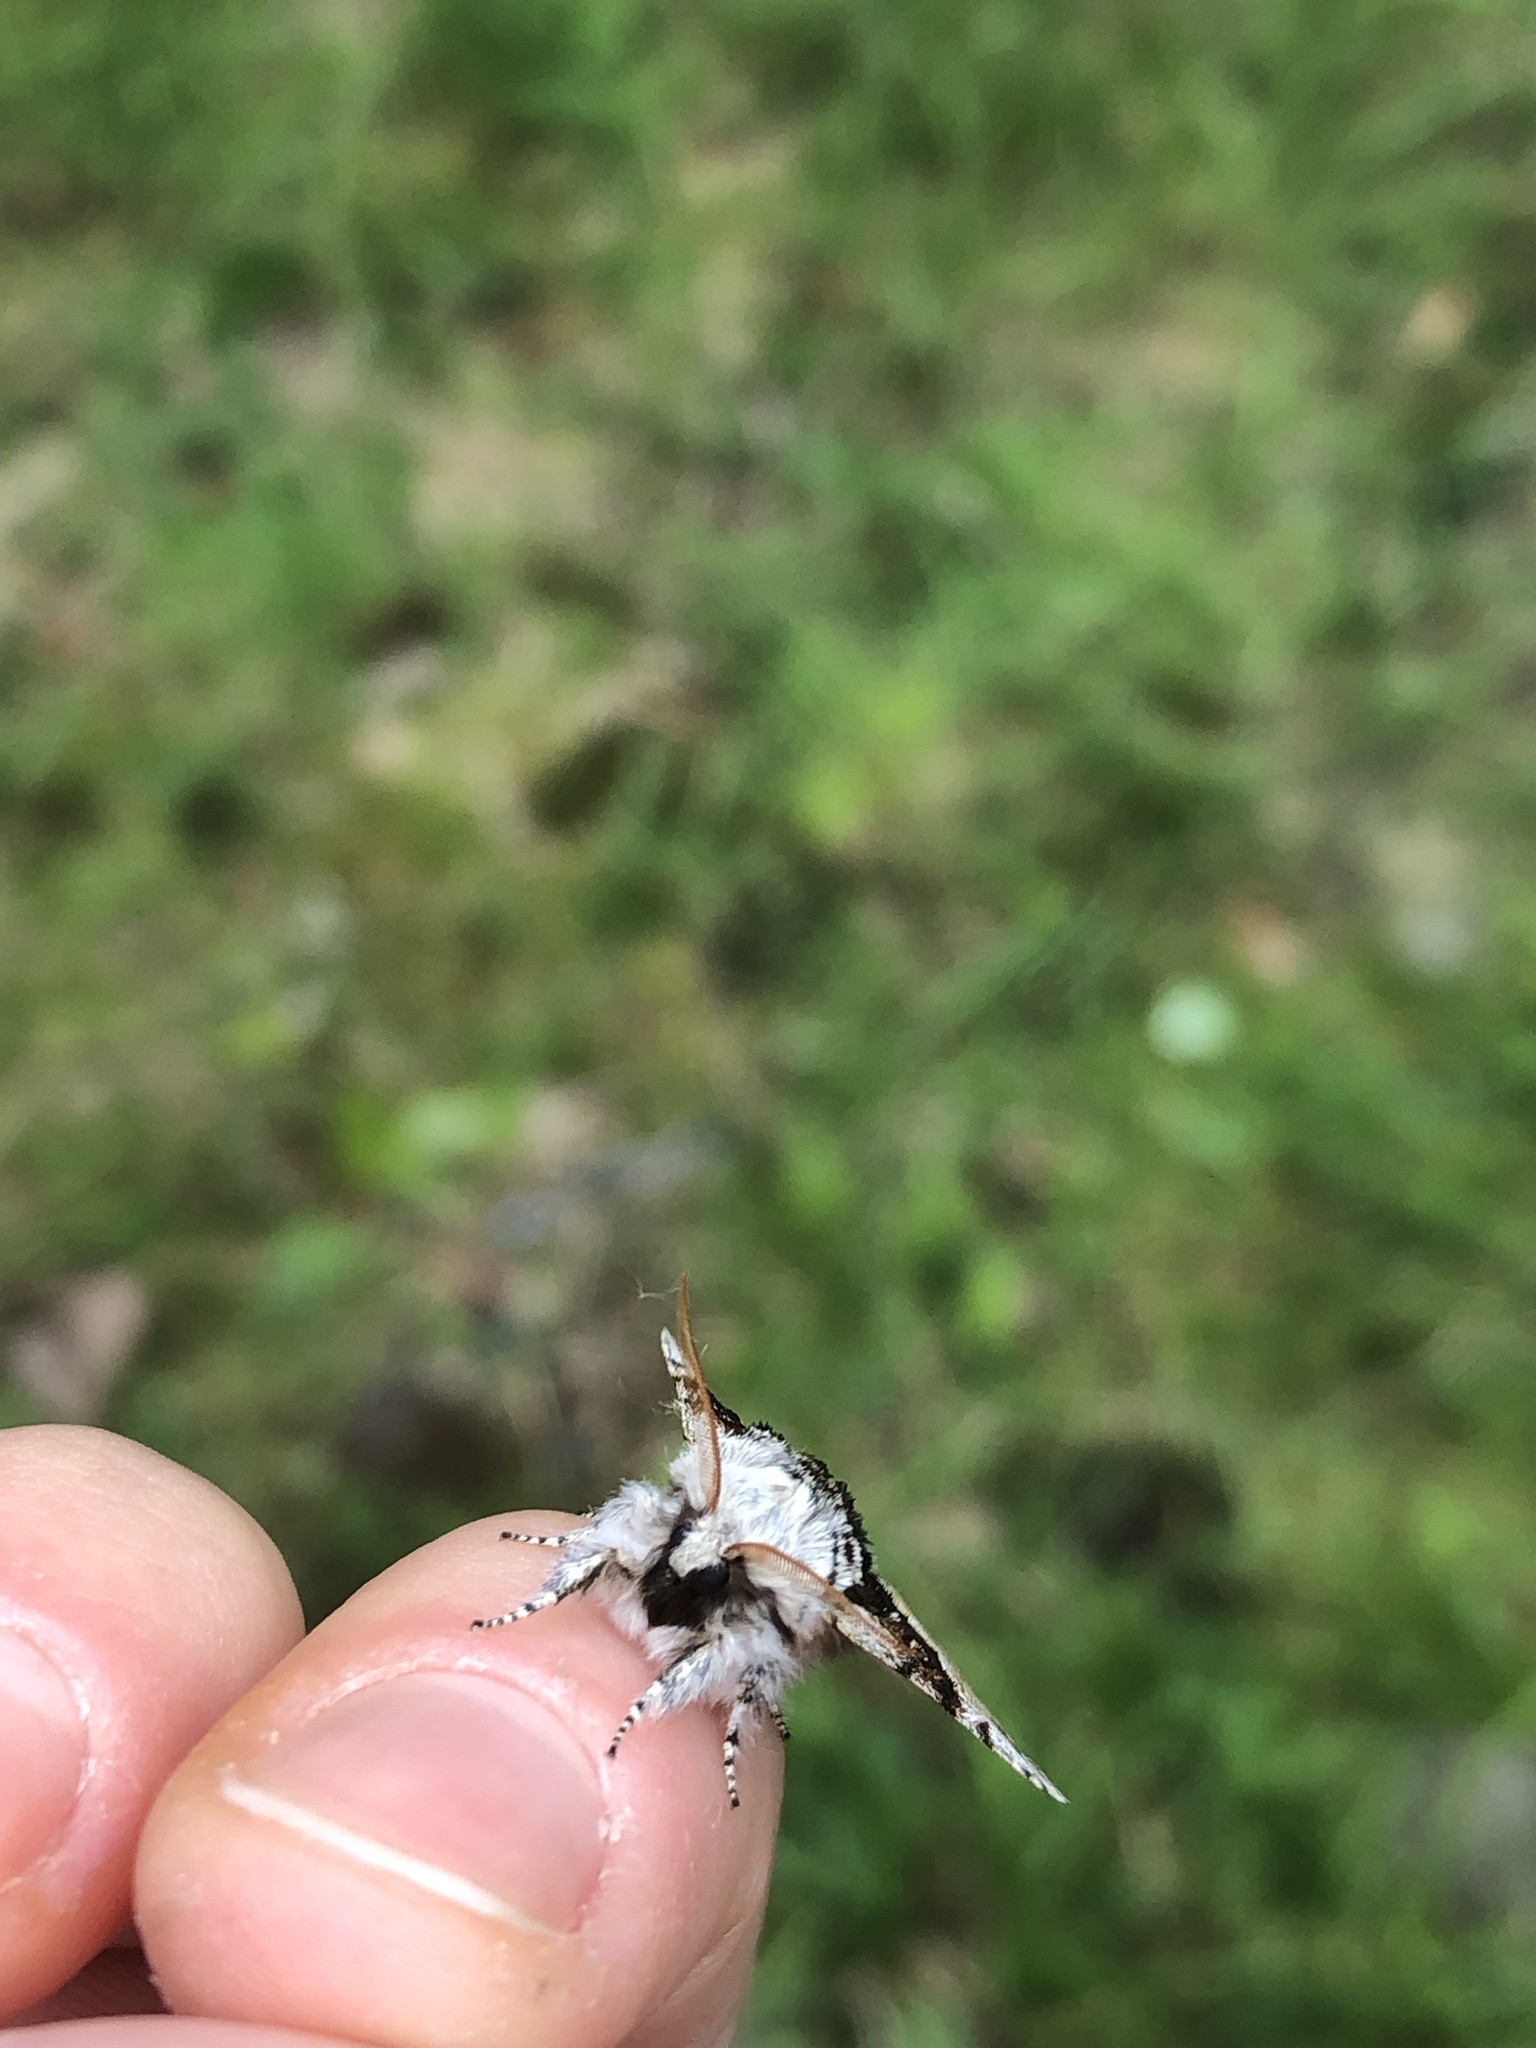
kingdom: Animalia
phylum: Arthropoda
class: Insecta
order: Lepidoptera
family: Noctuidae
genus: Colocasia
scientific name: Colocasia coryli
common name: Nut-tree tussock
